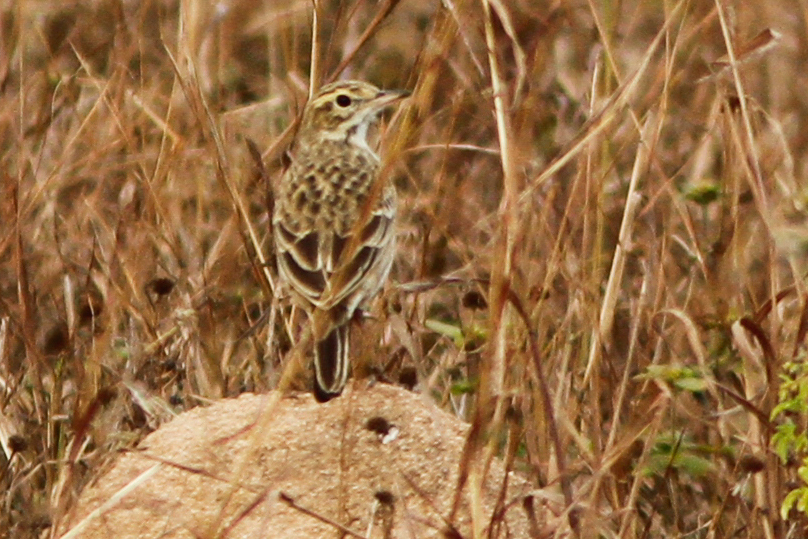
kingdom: Animalia
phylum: Chordata
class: Aves
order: Passeriformes
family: Motacillidae
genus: Anthus
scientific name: Anthus australis
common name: Australian pipit
